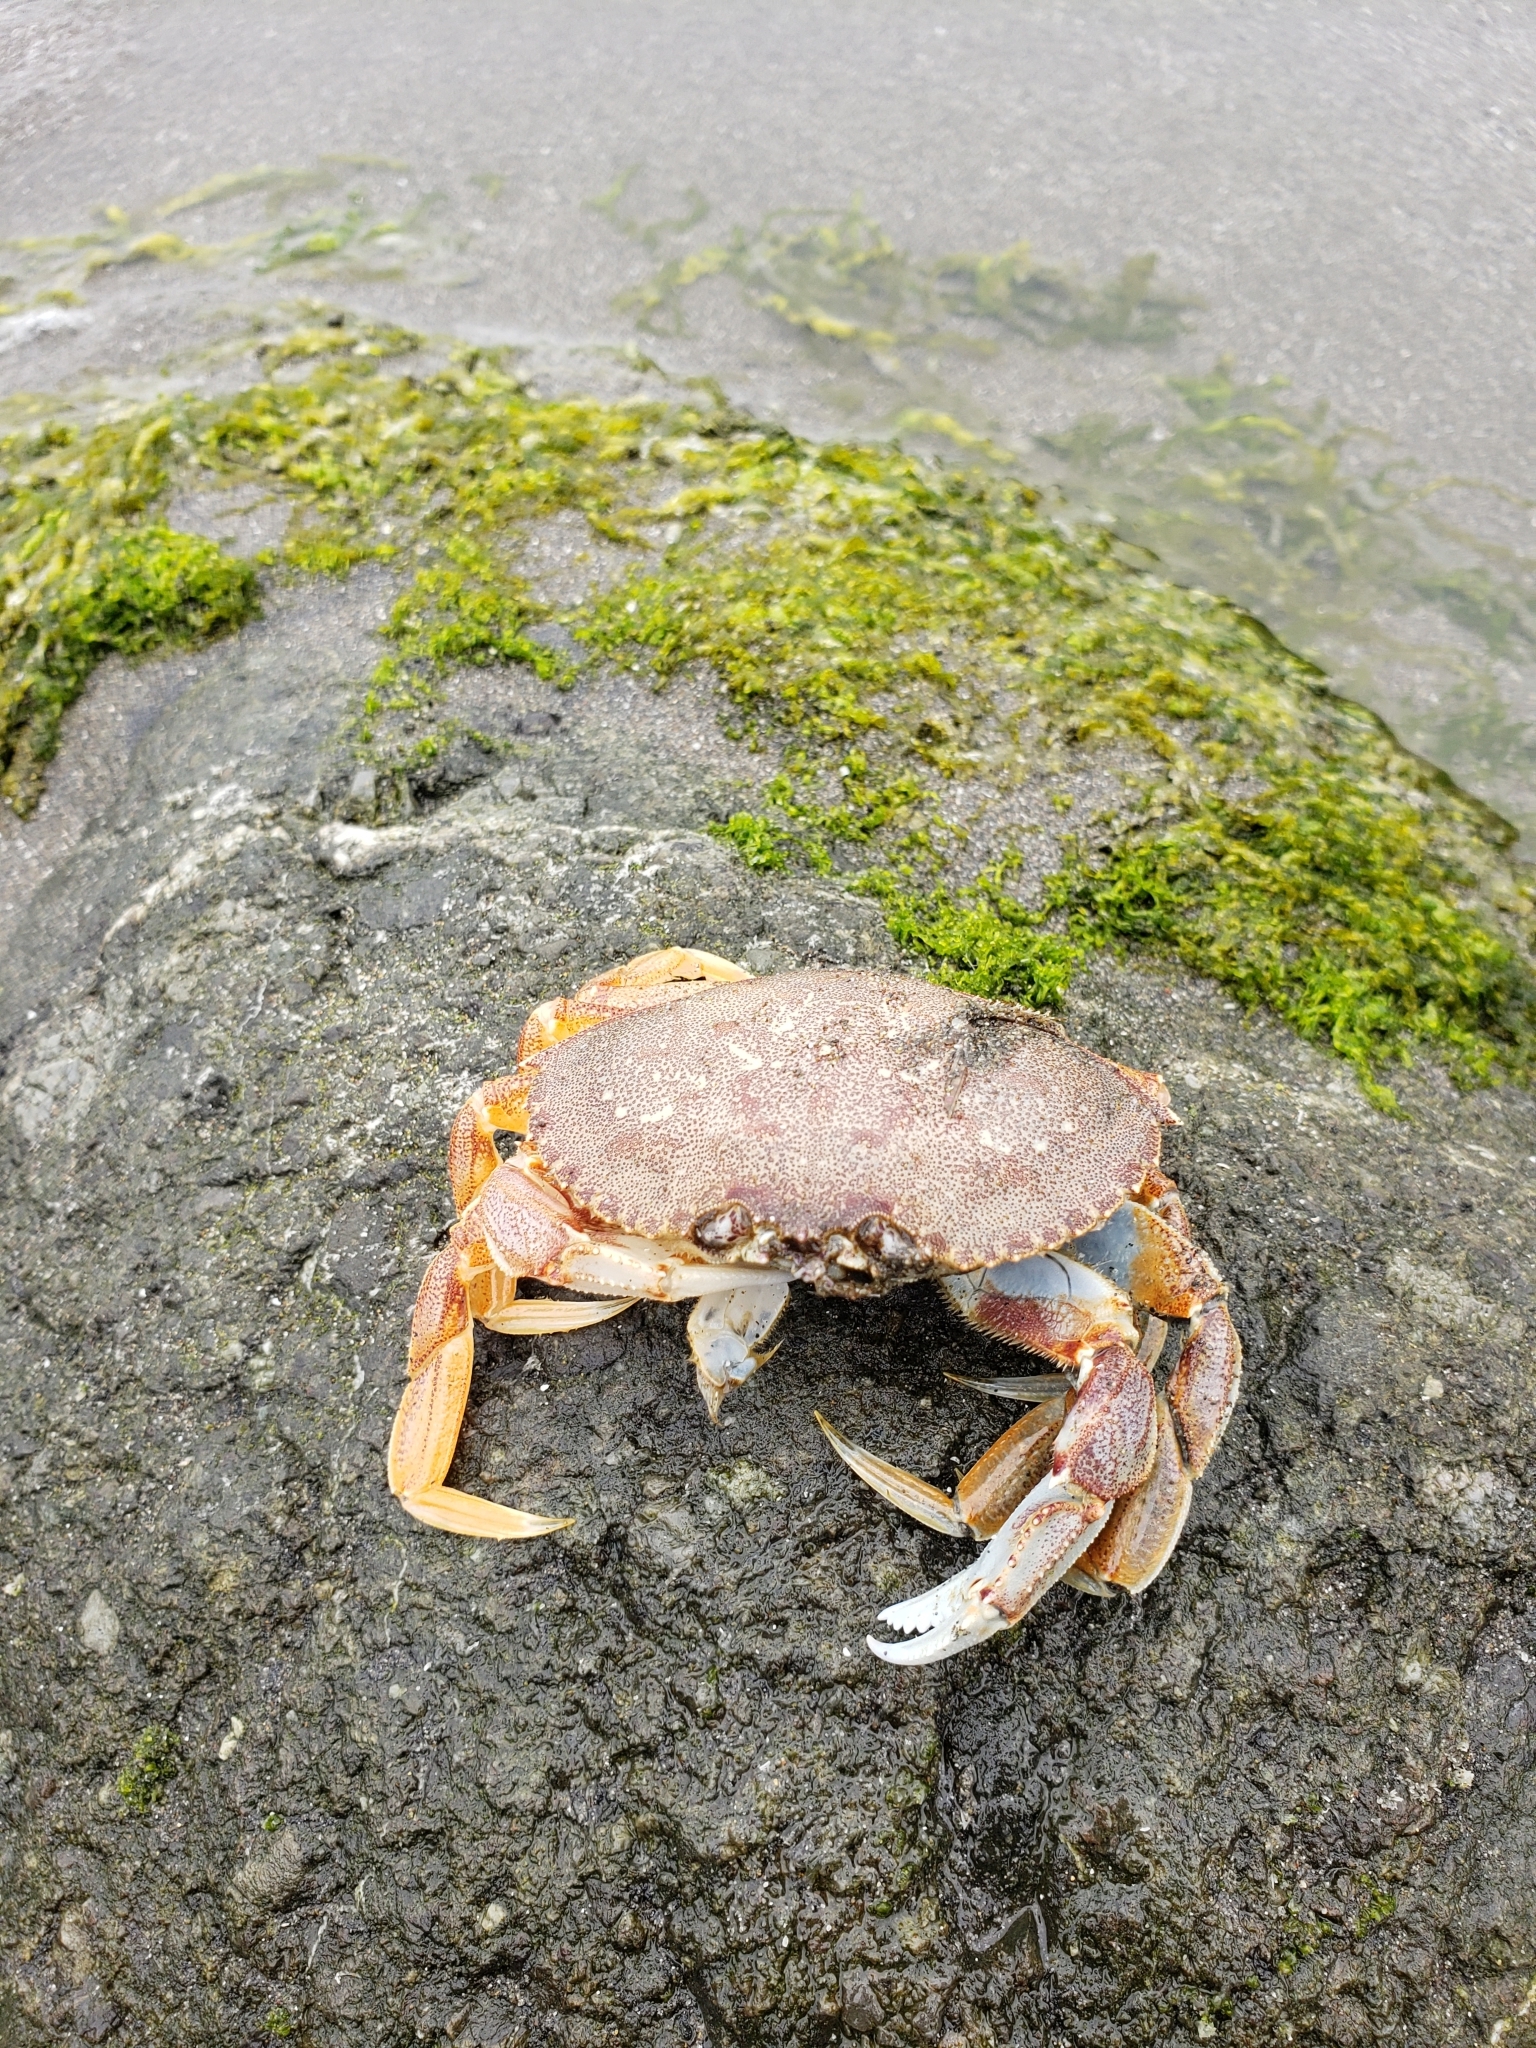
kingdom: Animalia
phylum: Arthropoda
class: Malacostraca
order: Decapoda
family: Cancridae
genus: Metacarcinus
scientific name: Metacarcinus magister
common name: Californian crab
